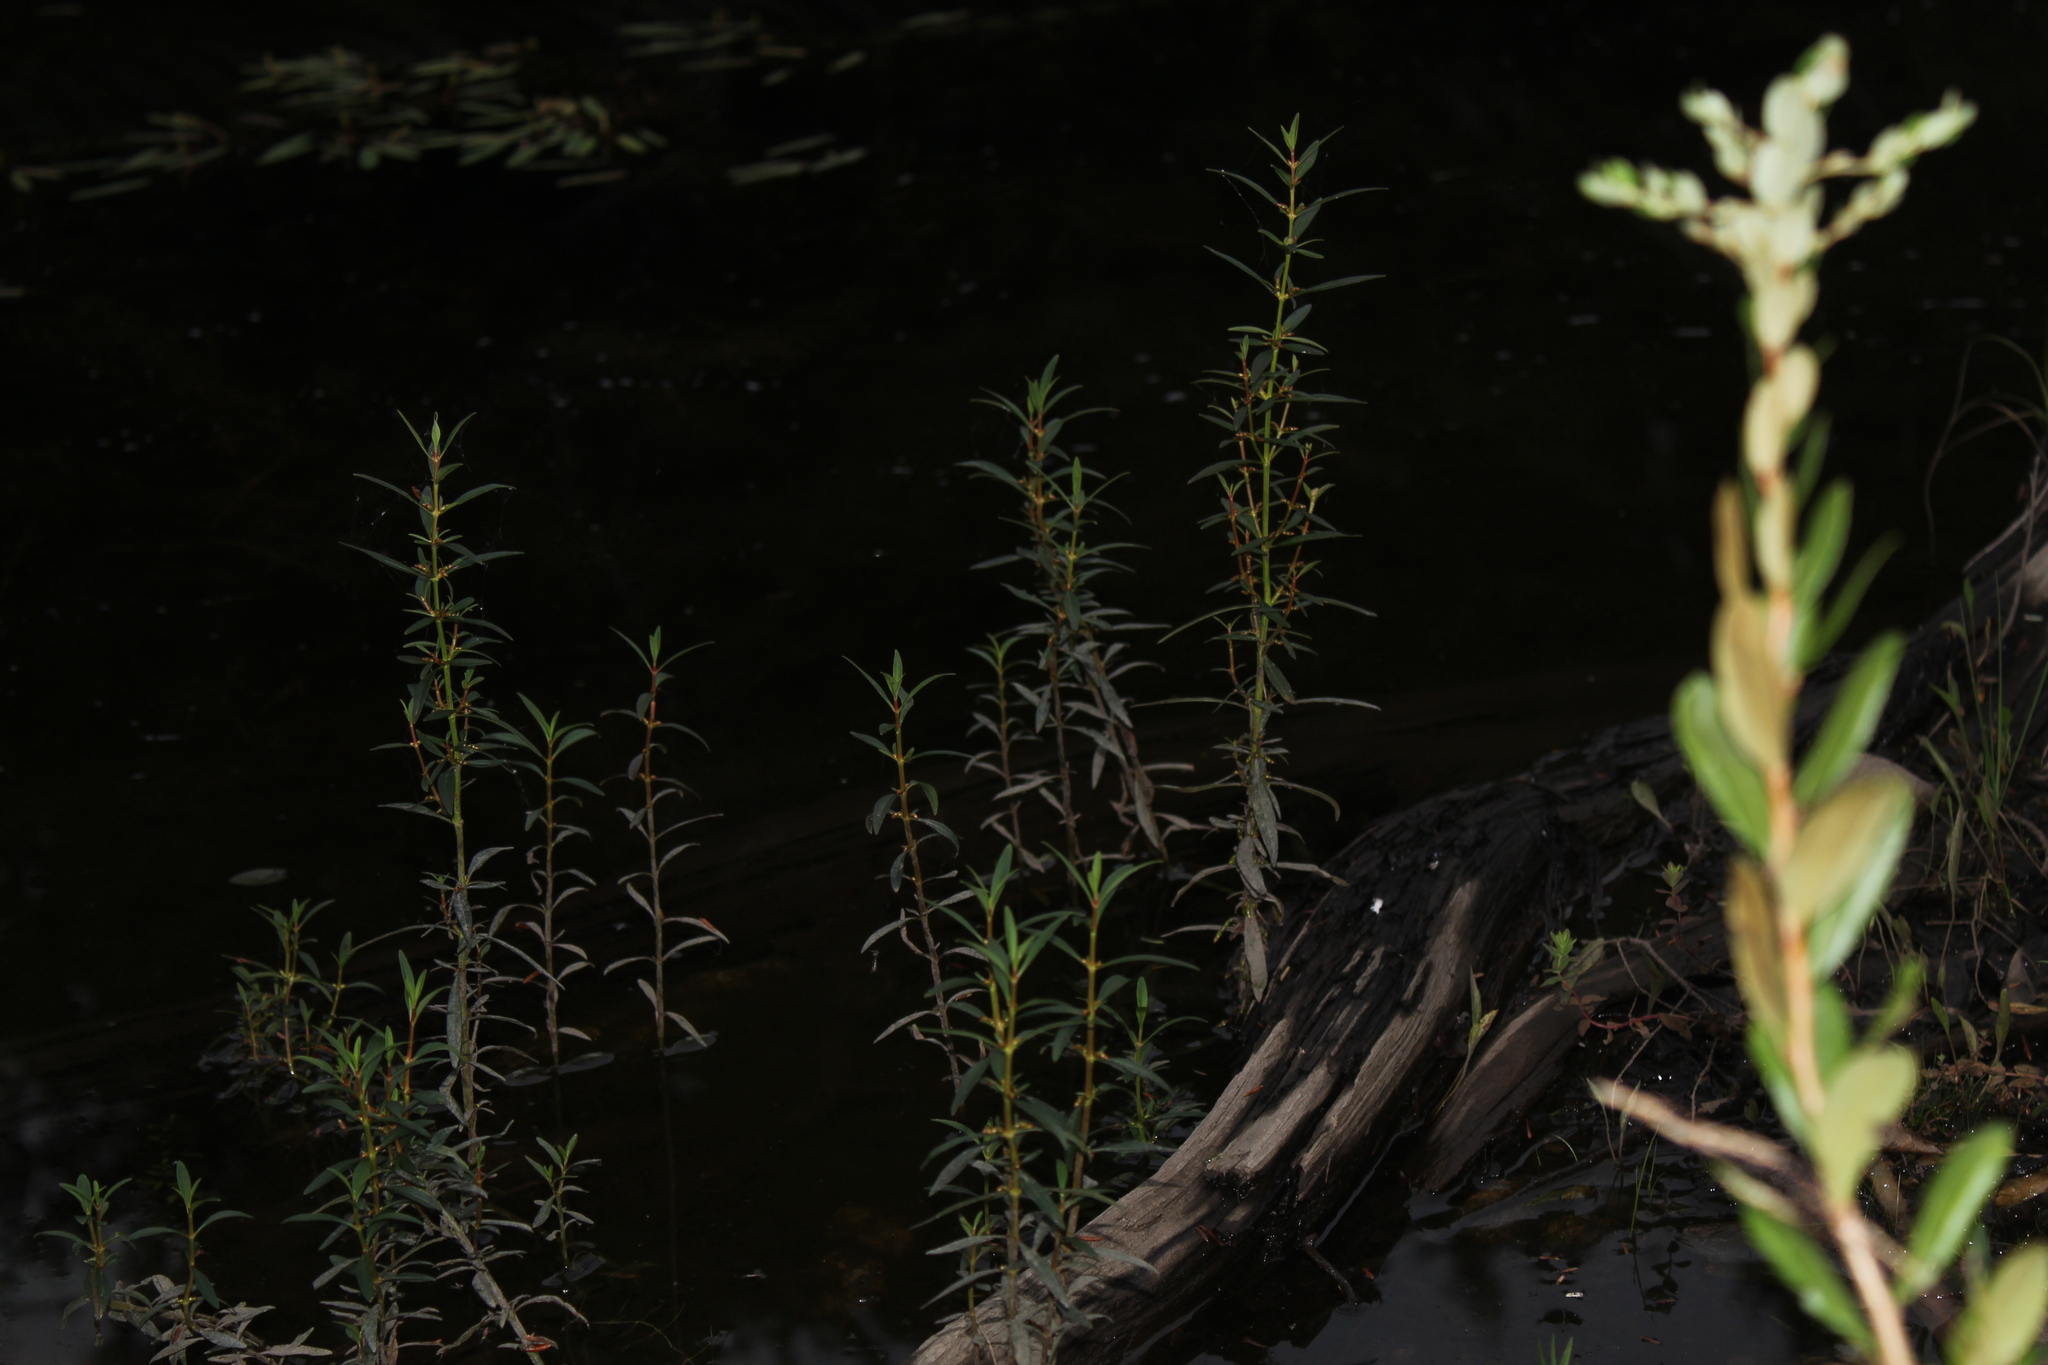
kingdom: Plantae
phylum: Tracheophyta
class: Magnoliopsida
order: Ericales
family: Primulaceae
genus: Lysimachia
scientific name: Lysimachia terrestris
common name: Lake loosestrife
